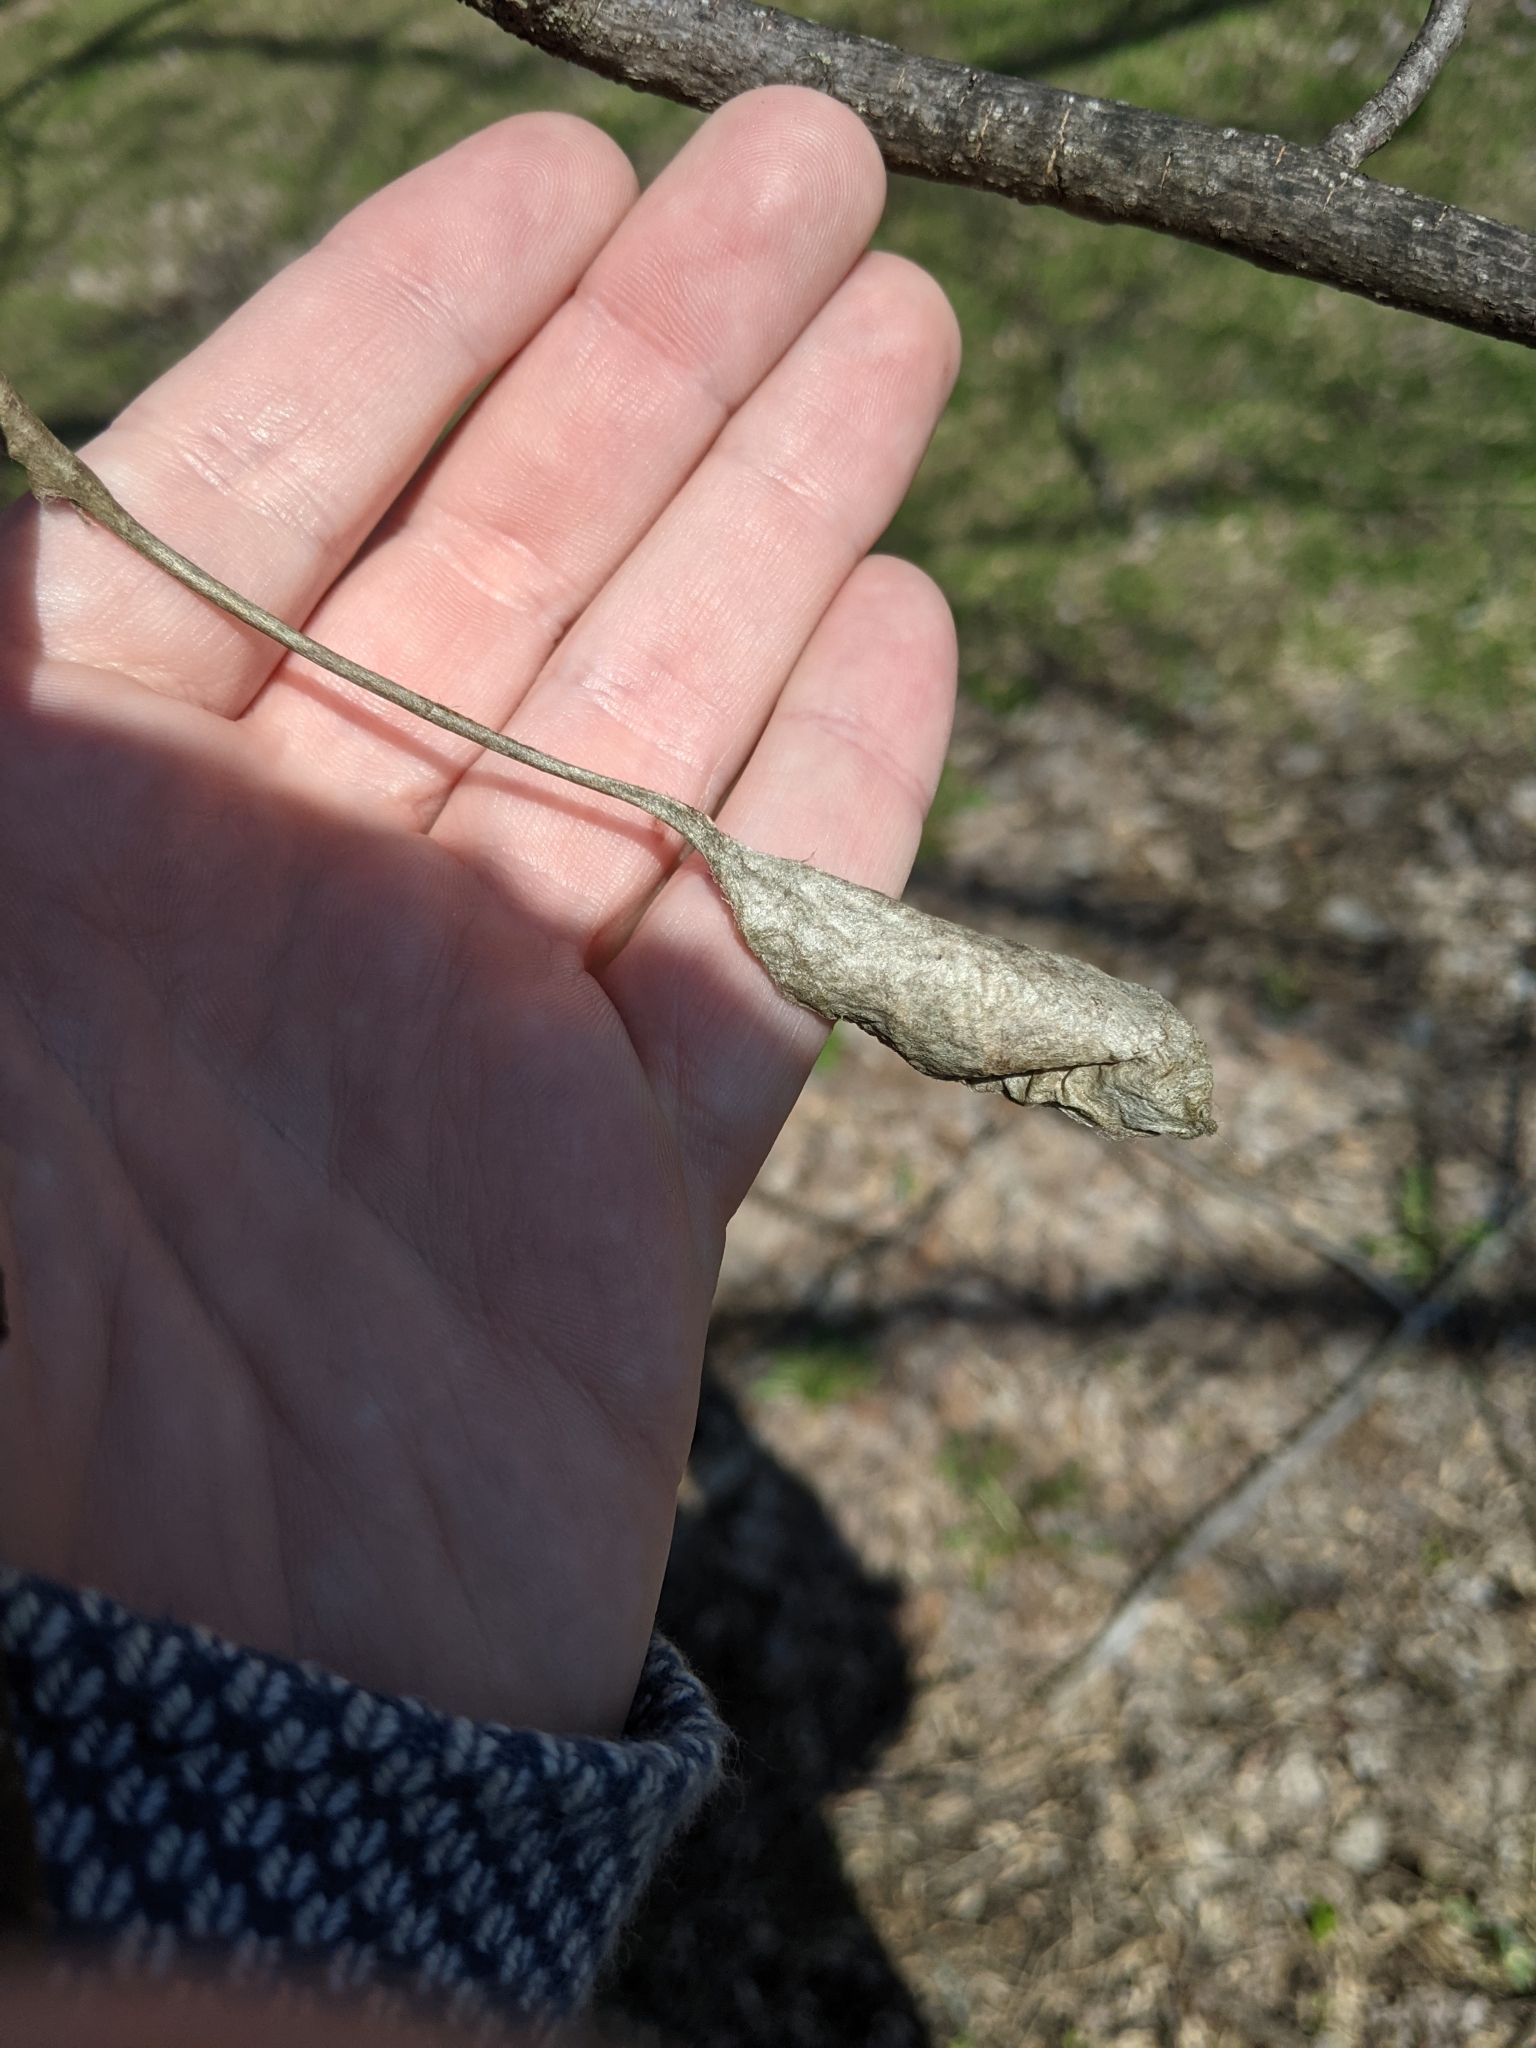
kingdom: Animalia
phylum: Arthropoda
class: Insecta
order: Lepidoptera
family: Saturniidae
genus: Callosamia
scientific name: Callosamia promethea
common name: Promethea silkmoth
